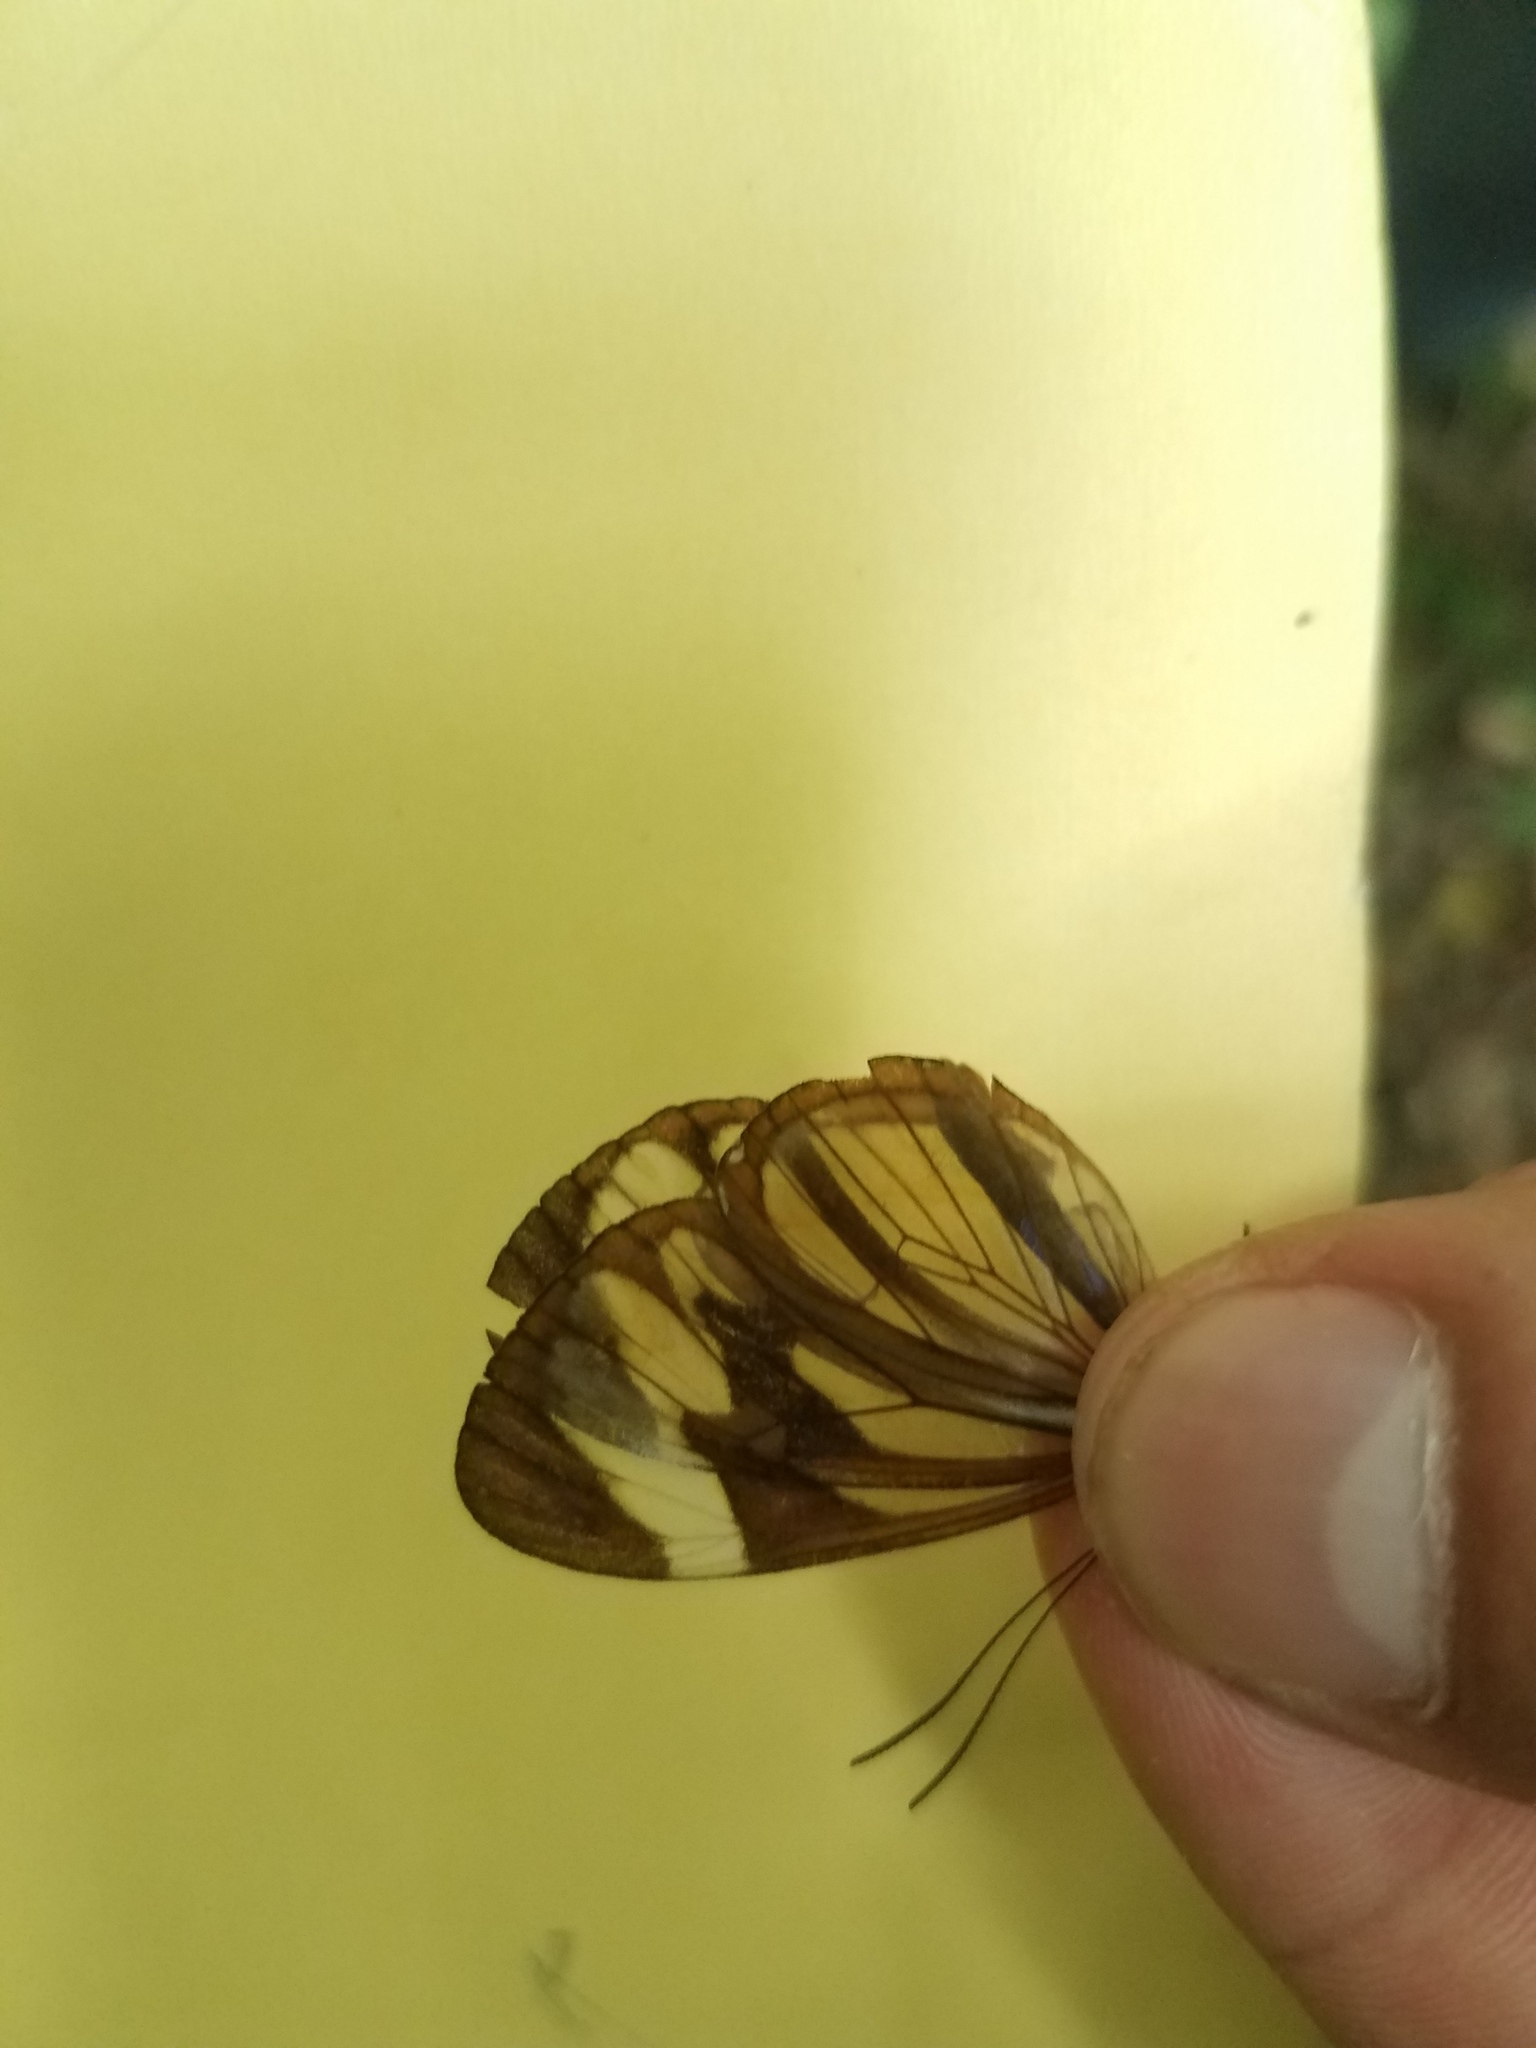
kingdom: Animalia
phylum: Arthropoda
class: Insecta
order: Lepidoptera
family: Nymphalidae
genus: Ithomia
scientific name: Ithomia patilla
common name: Patilla clearwing
